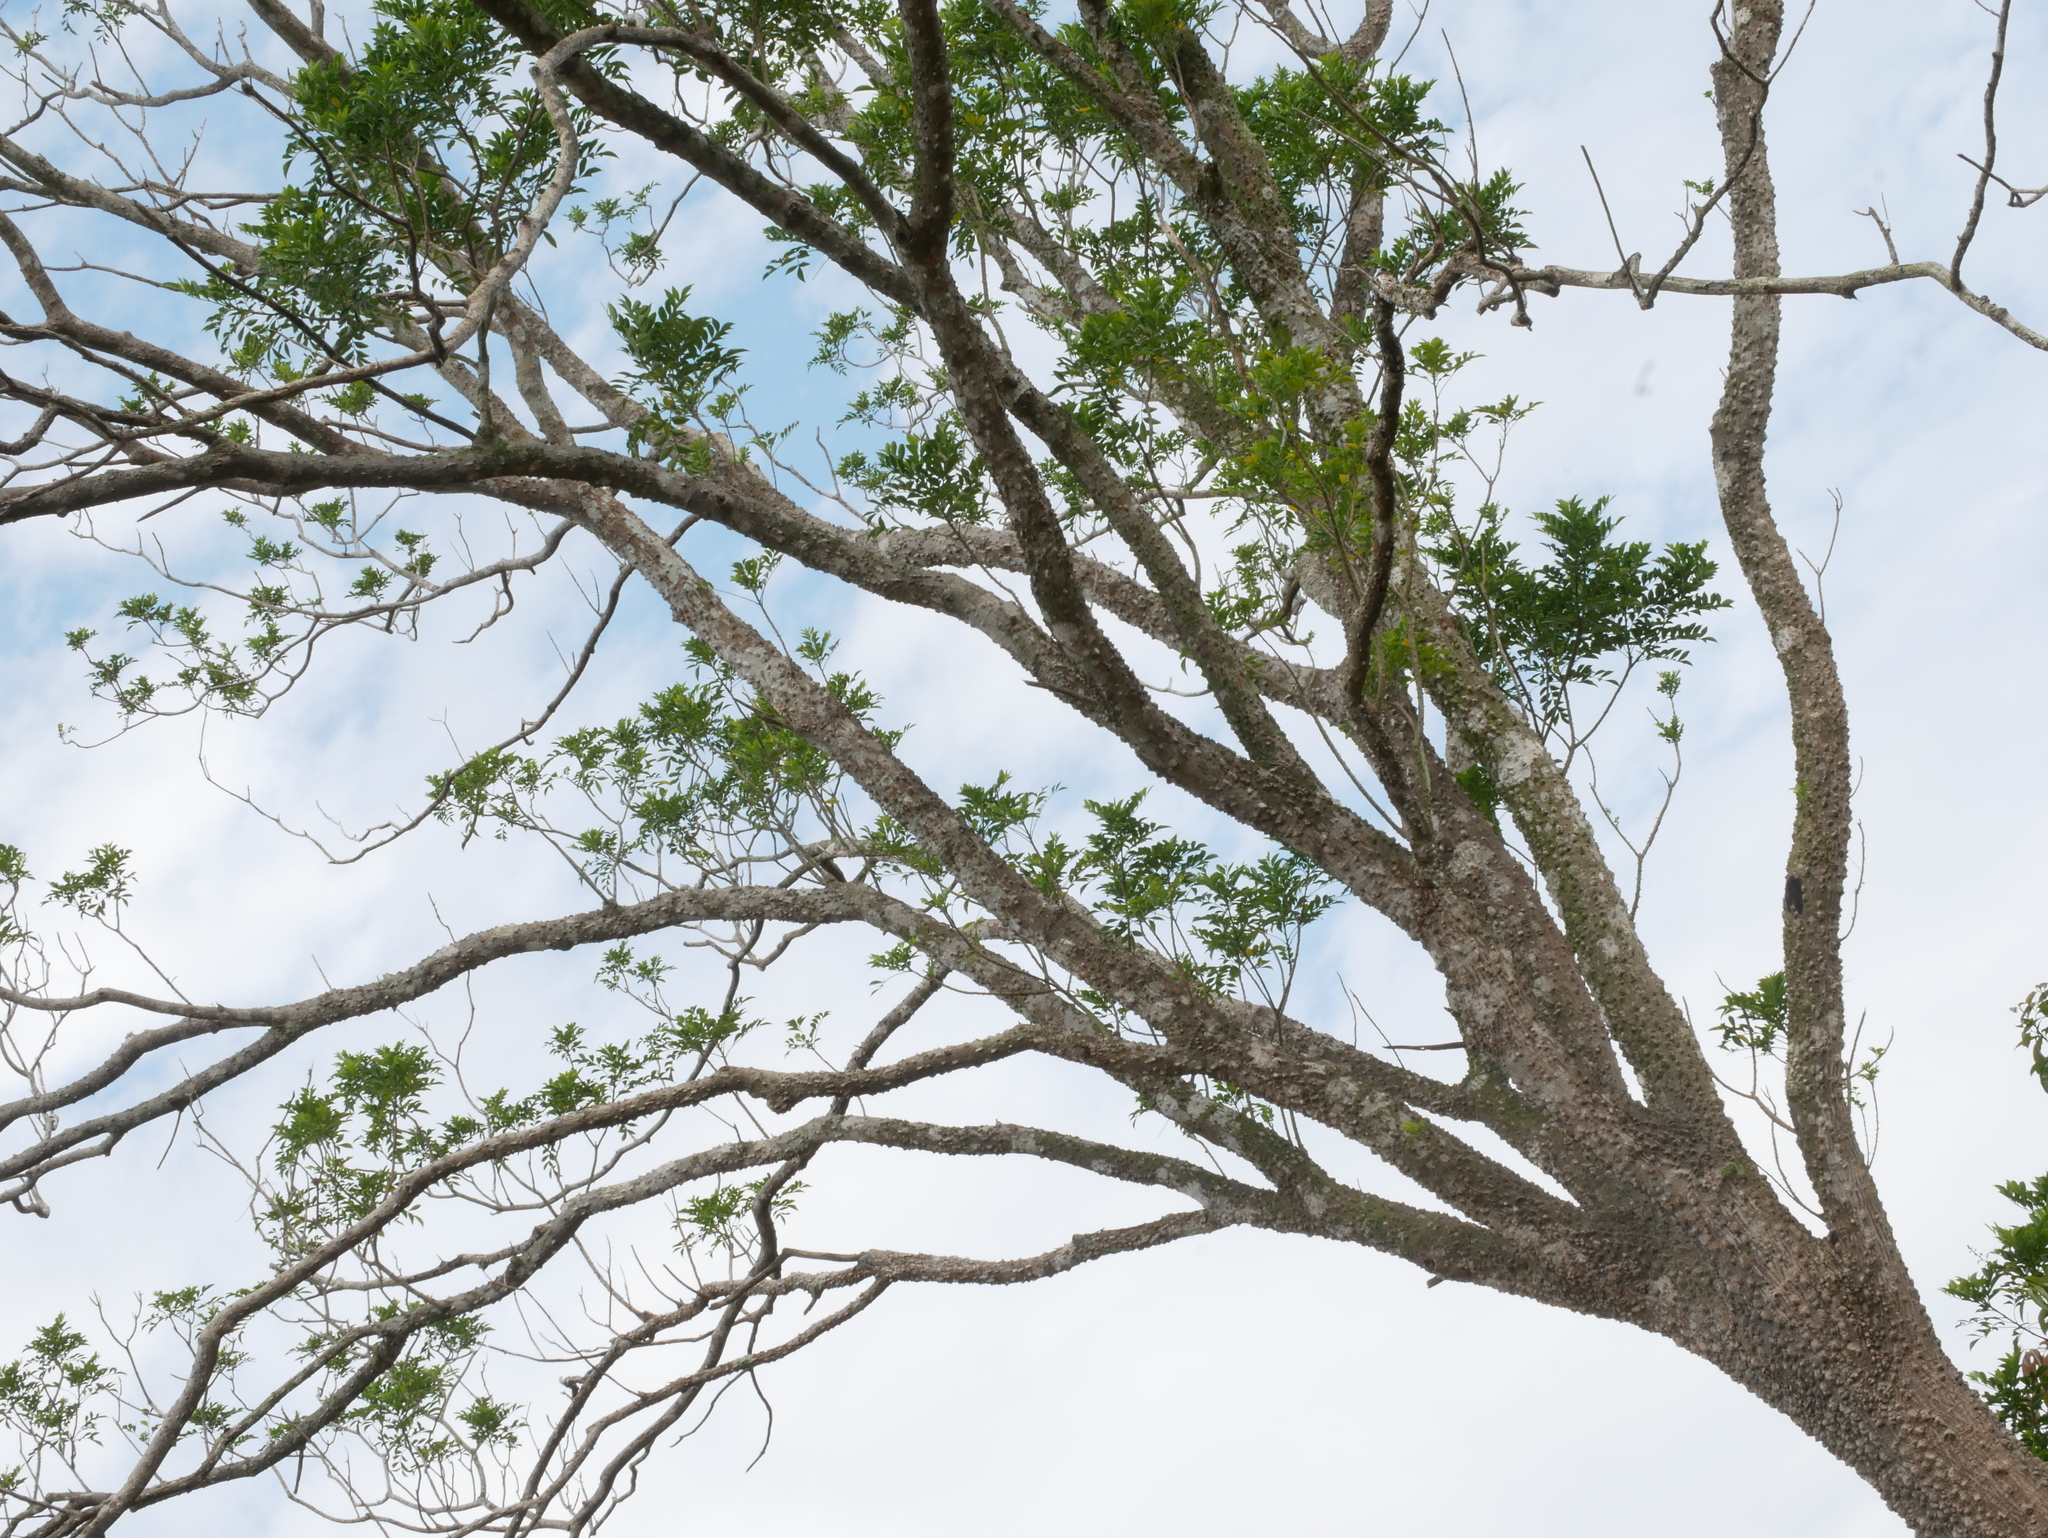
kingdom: Plantae
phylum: Tracheophyta
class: Magnoliopsida
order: Sapindales
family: Rutaceae
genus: Zanthoxylum
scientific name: Zanthoxylum avicennae
